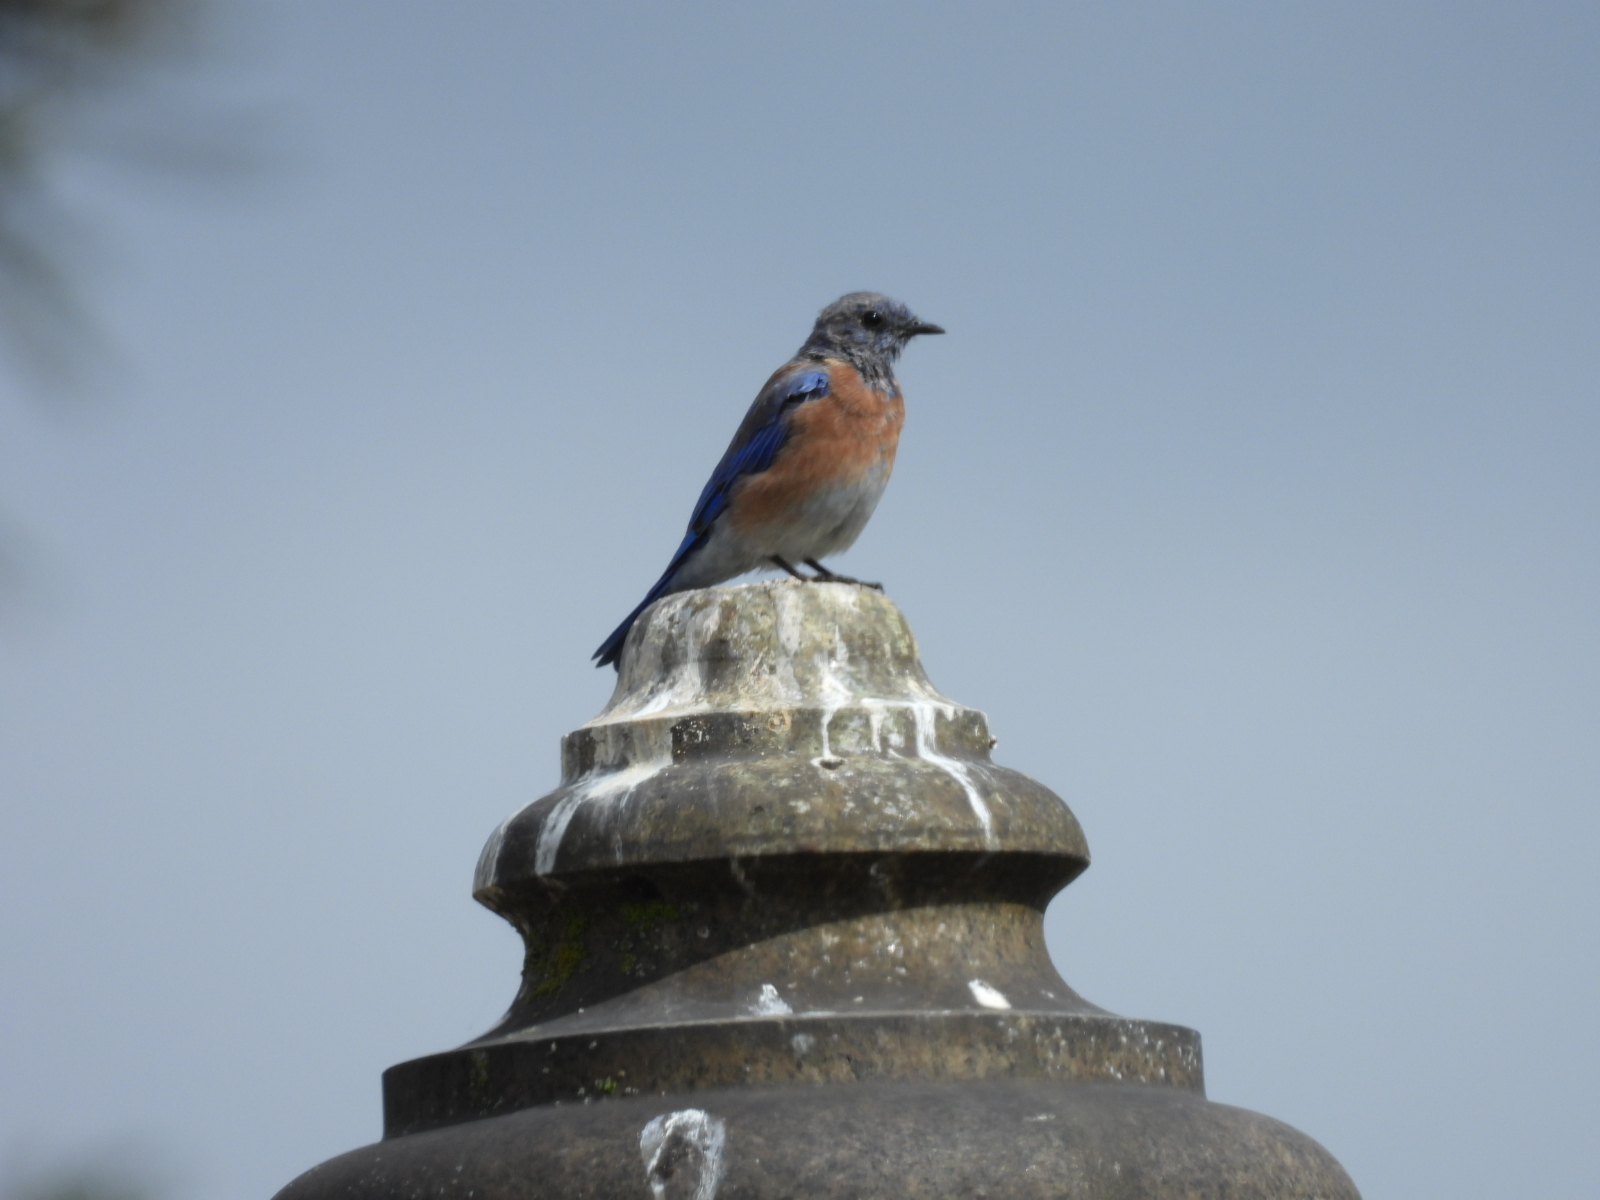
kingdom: Animalia
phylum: Chordata
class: Aves
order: Passeriformes
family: Turdidae
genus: Sialia
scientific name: Sialia mexicana
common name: Western bluebird
